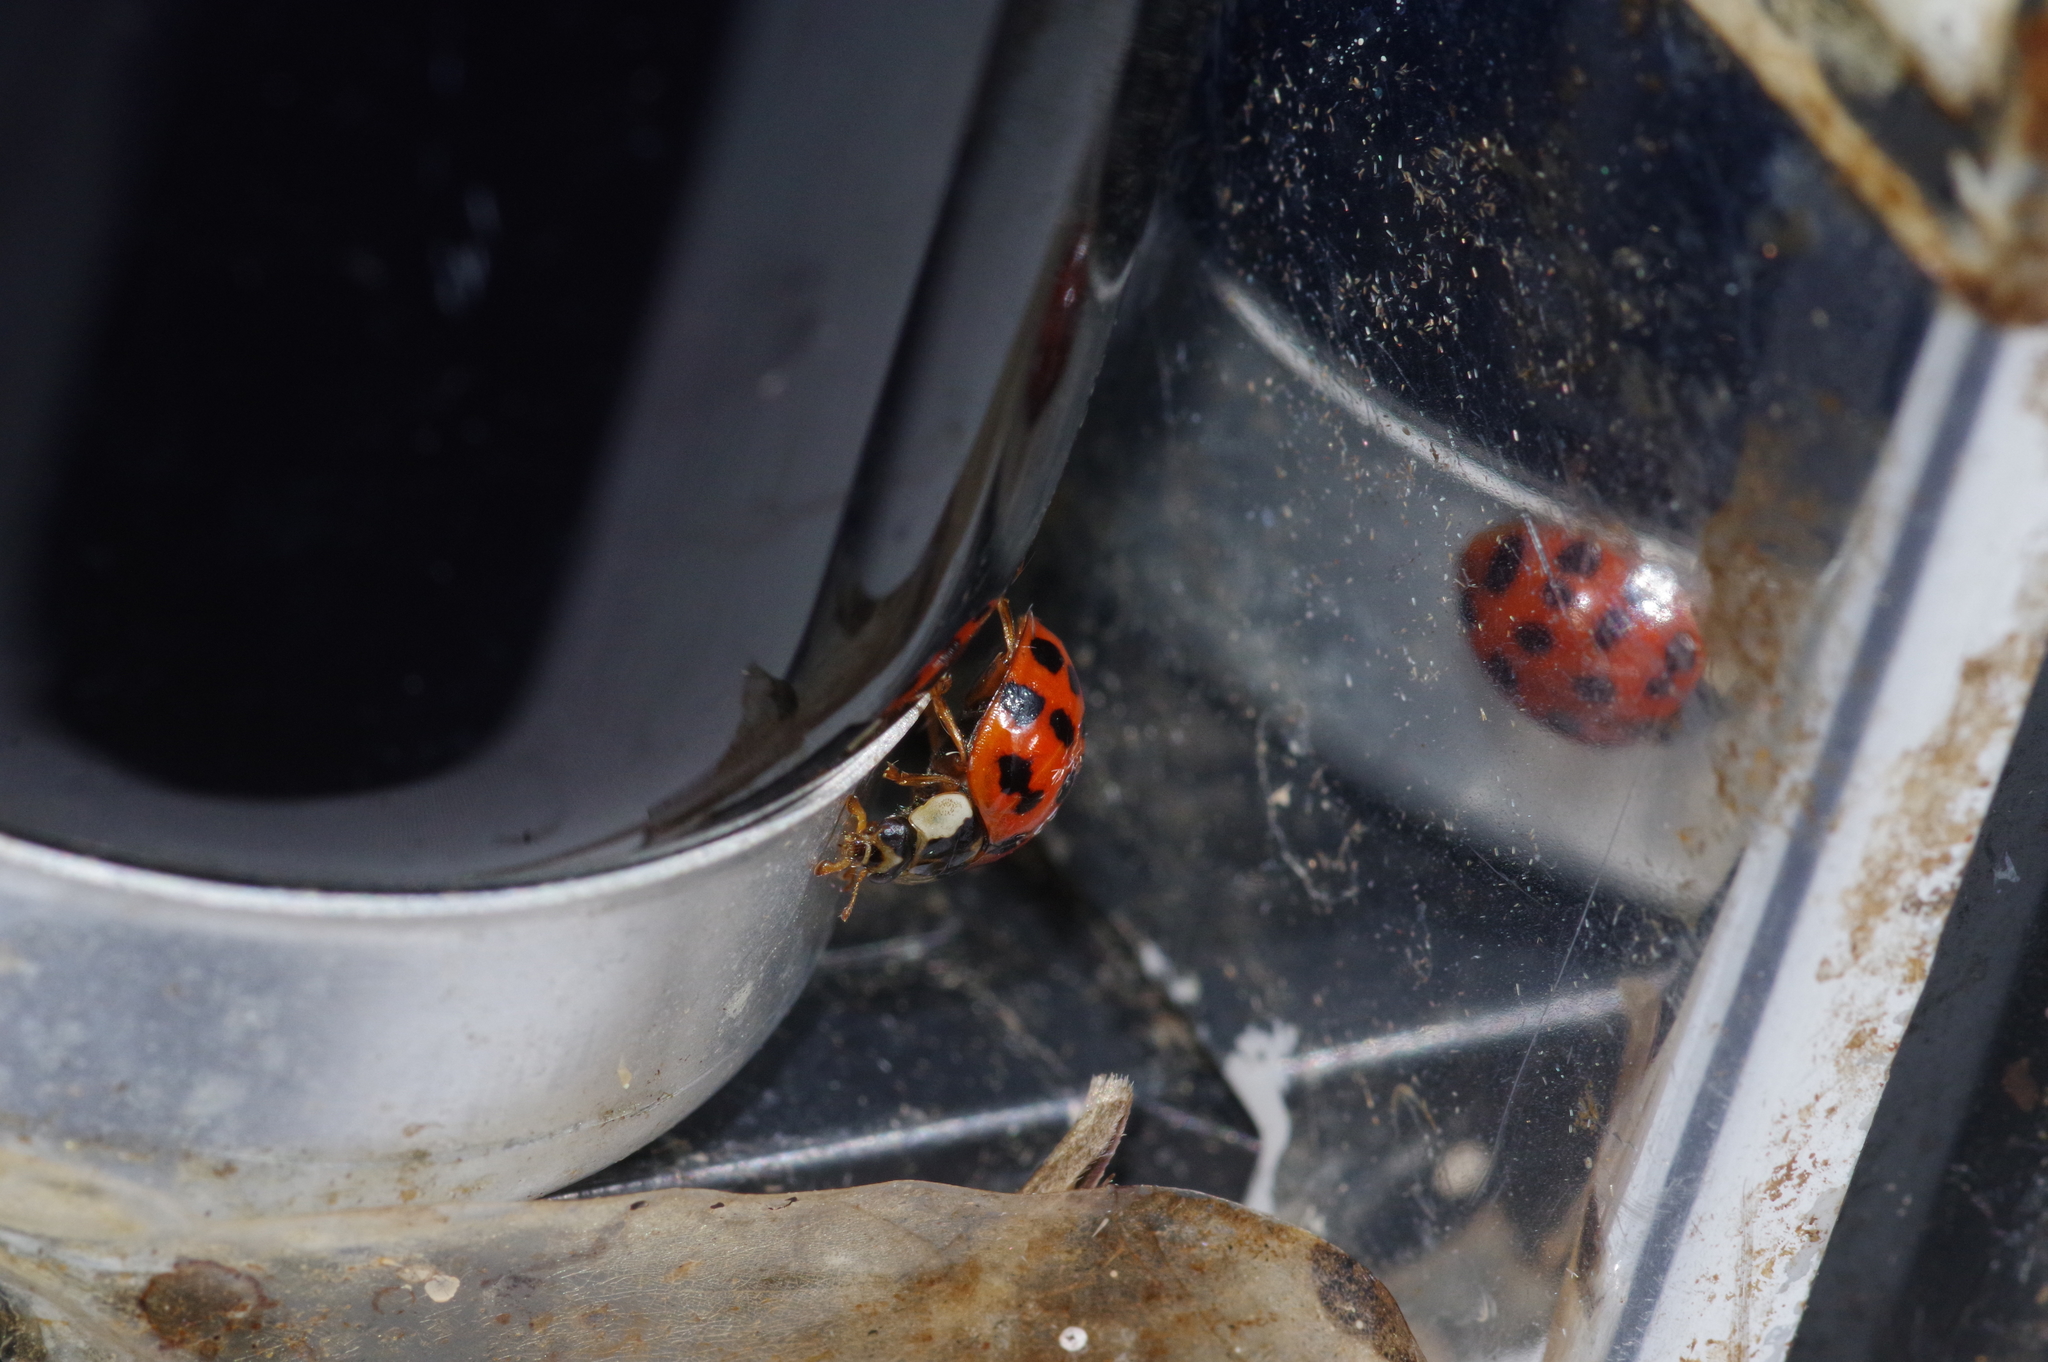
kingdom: Animalia
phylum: Arthropoda
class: Insecta
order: Coleoptera
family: Coccinellidae
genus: Harmonia
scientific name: Harmonia axyridis
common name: Harlequin ladybird
